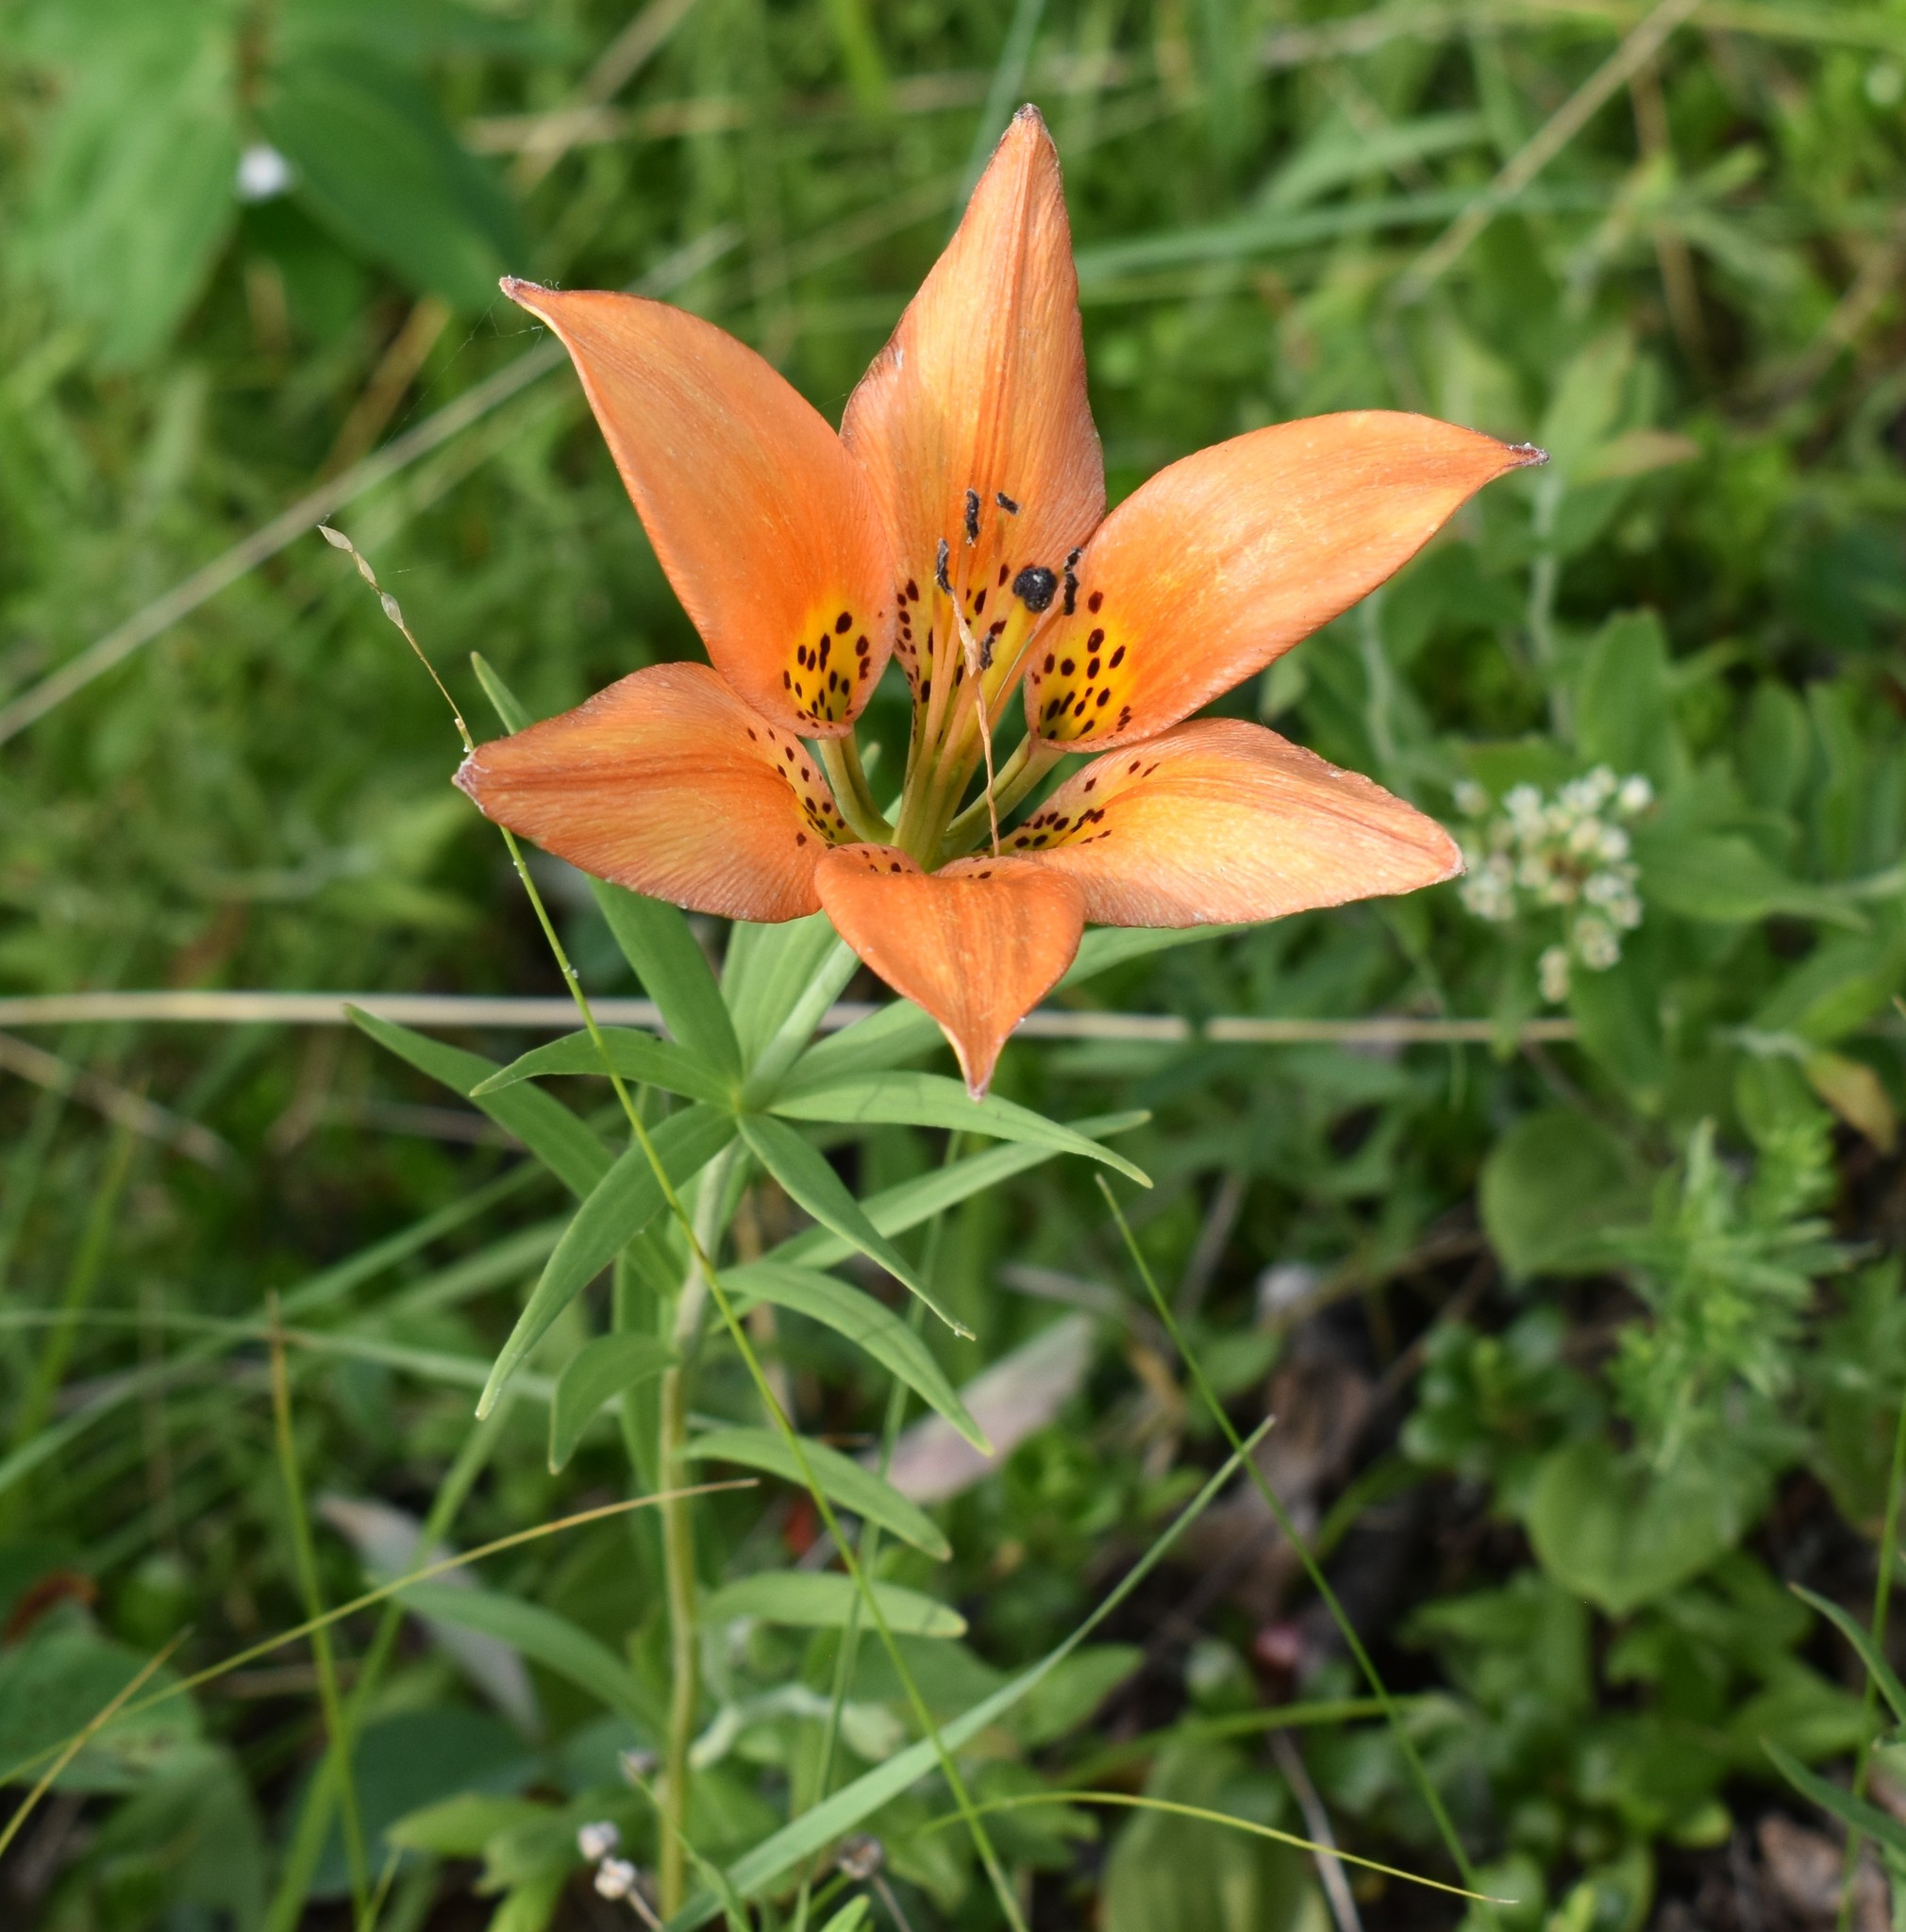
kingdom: Plantae
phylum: Tracheophyta
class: Liliopsida
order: Liliales
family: Liliaceae
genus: Lilium
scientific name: Lilium philadelphicum
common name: Red lily
